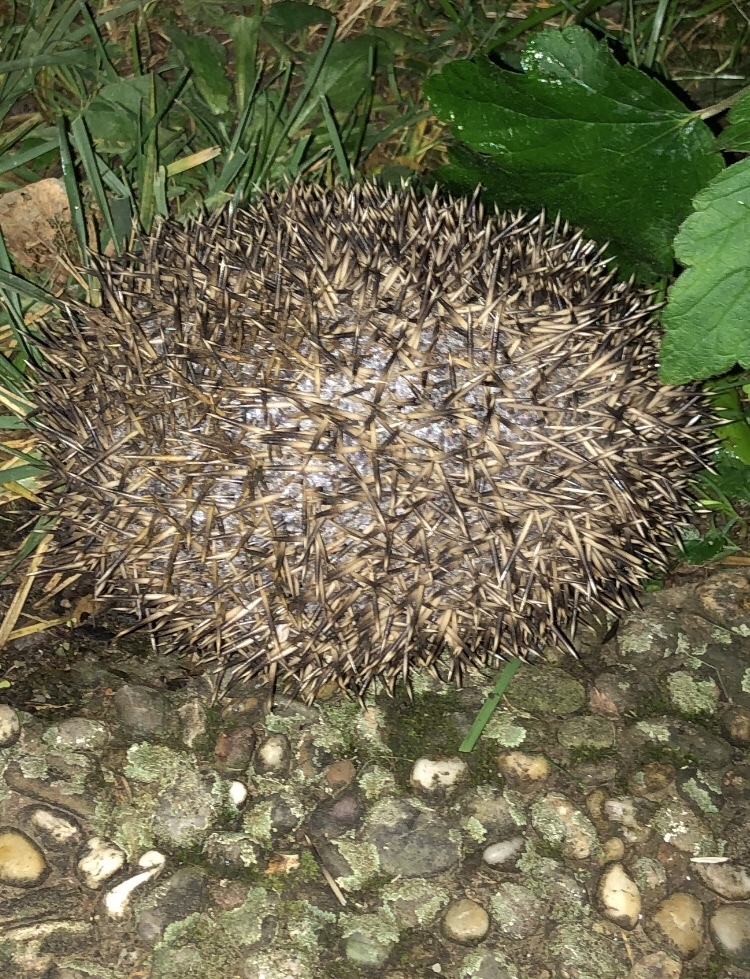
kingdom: Animalia
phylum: Chordata
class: Mammalia
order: Erinaceomorpha
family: Erinaceidae
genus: Erinaceus
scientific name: Erinaceus europaeus
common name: West european hedgehog
